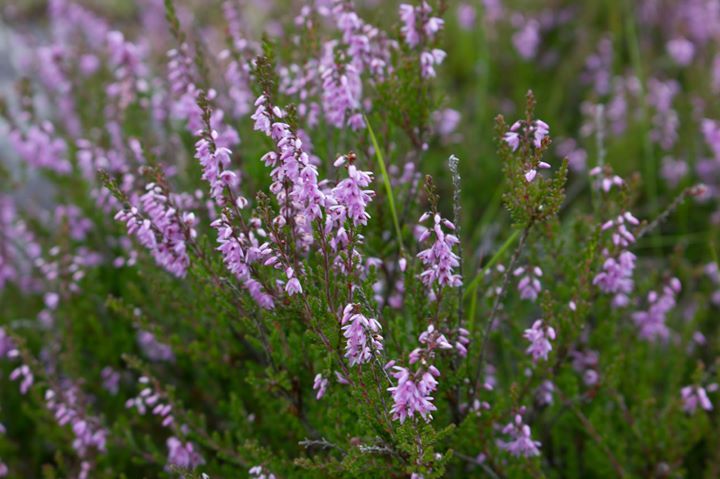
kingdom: Plantae
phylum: Tracheophyta
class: Magnoliopsida
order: Ericales
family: Ericaceae
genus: Calluna
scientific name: Calluna vulgaris
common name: Heather
